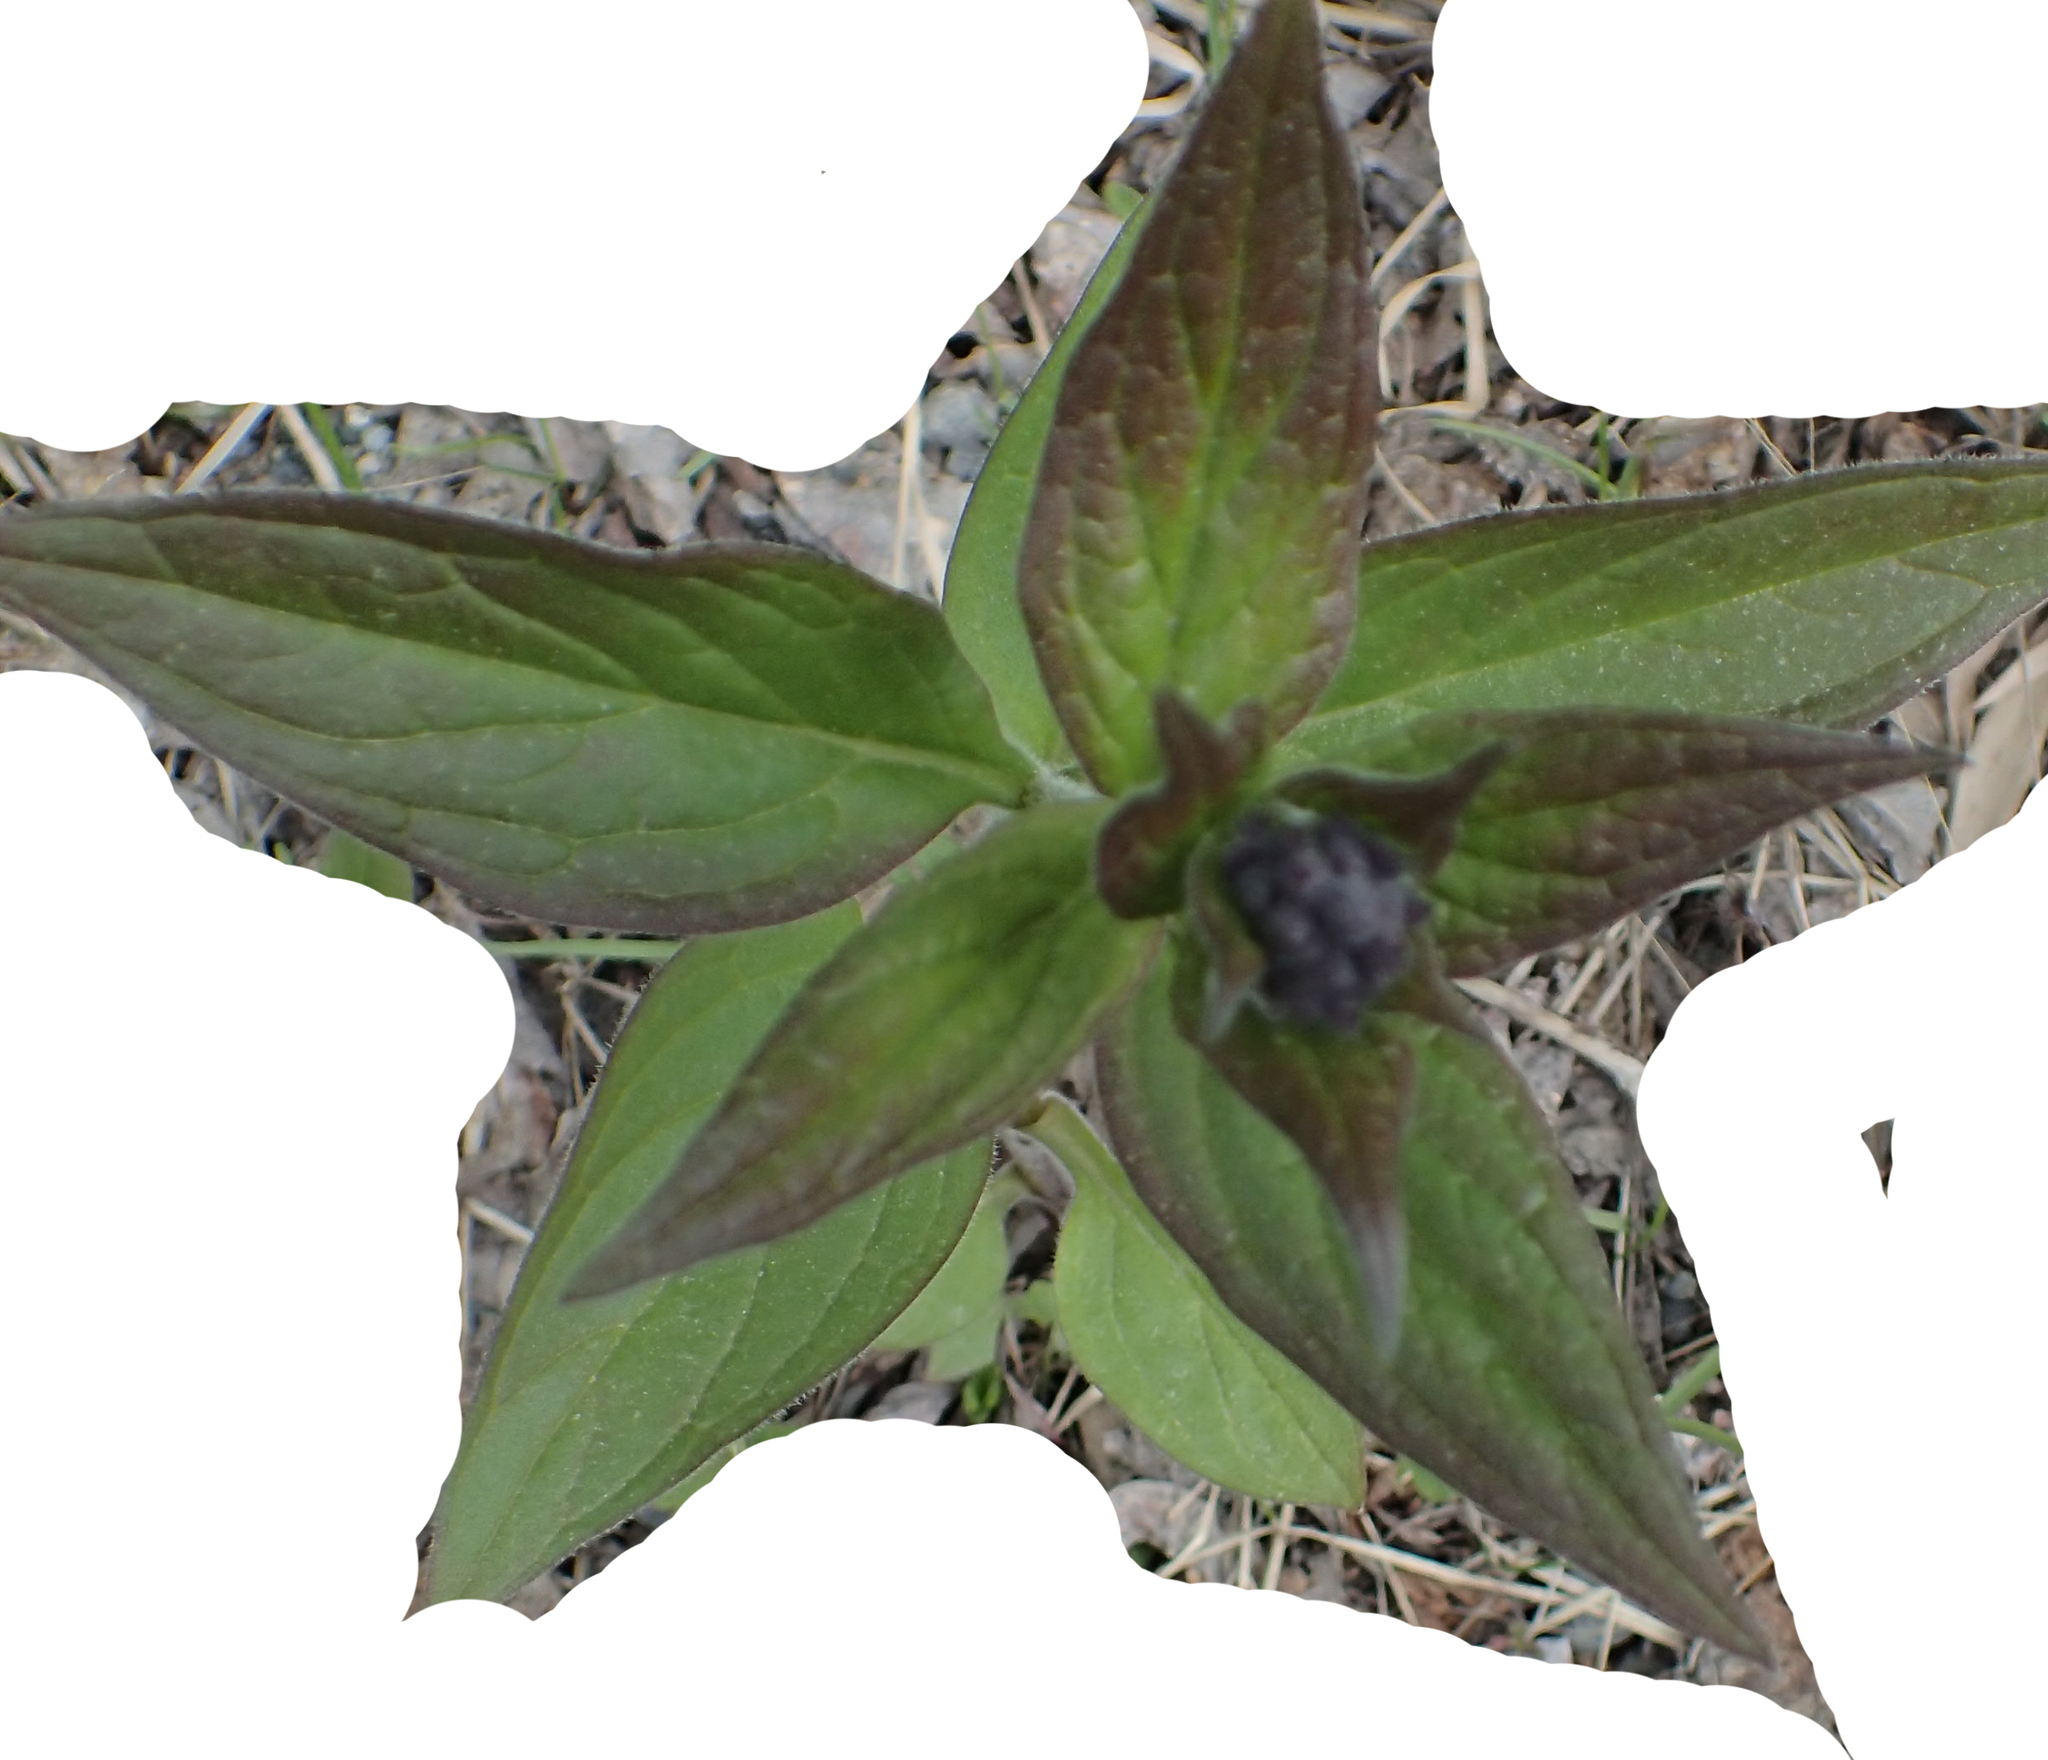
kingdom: Plantae
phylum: Tracheophyta
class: Magnoliopsida
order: Boraginales
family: Boraginaceae
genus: Mertensia
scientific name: Mertensia paniculata
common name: Panicled bluebells
